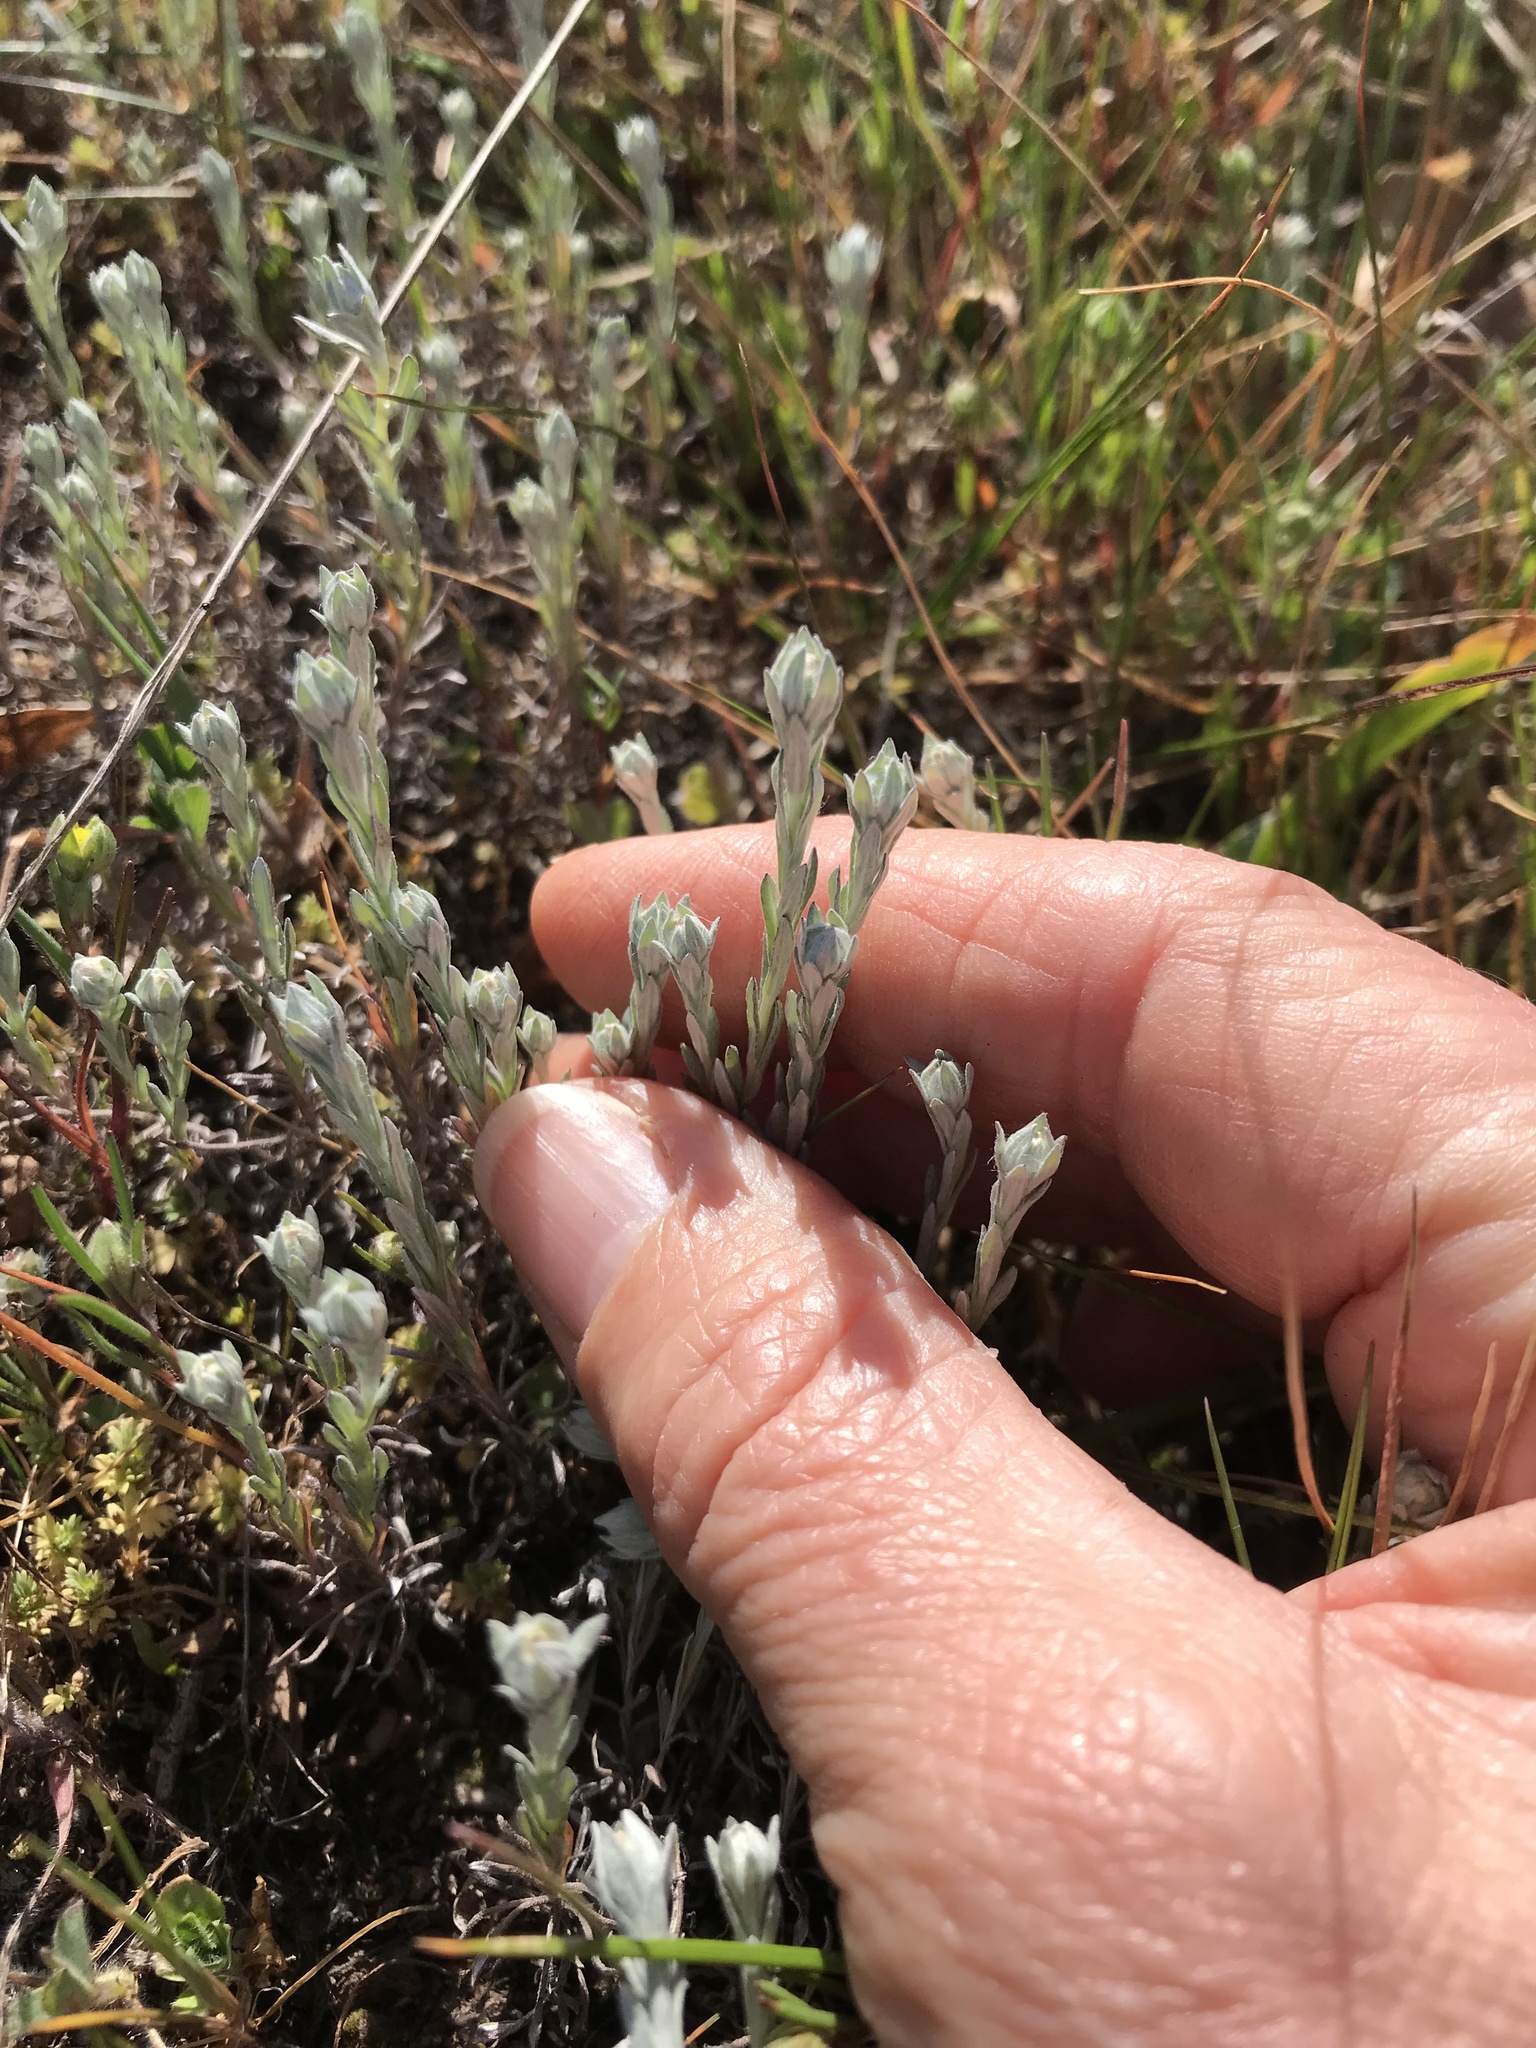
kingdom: Plantae
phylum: Tracheophyta
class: Magnoliopsida
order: Asterales
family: Asteraceae
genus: Bombycilaena
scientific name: Bombycilaena californica
